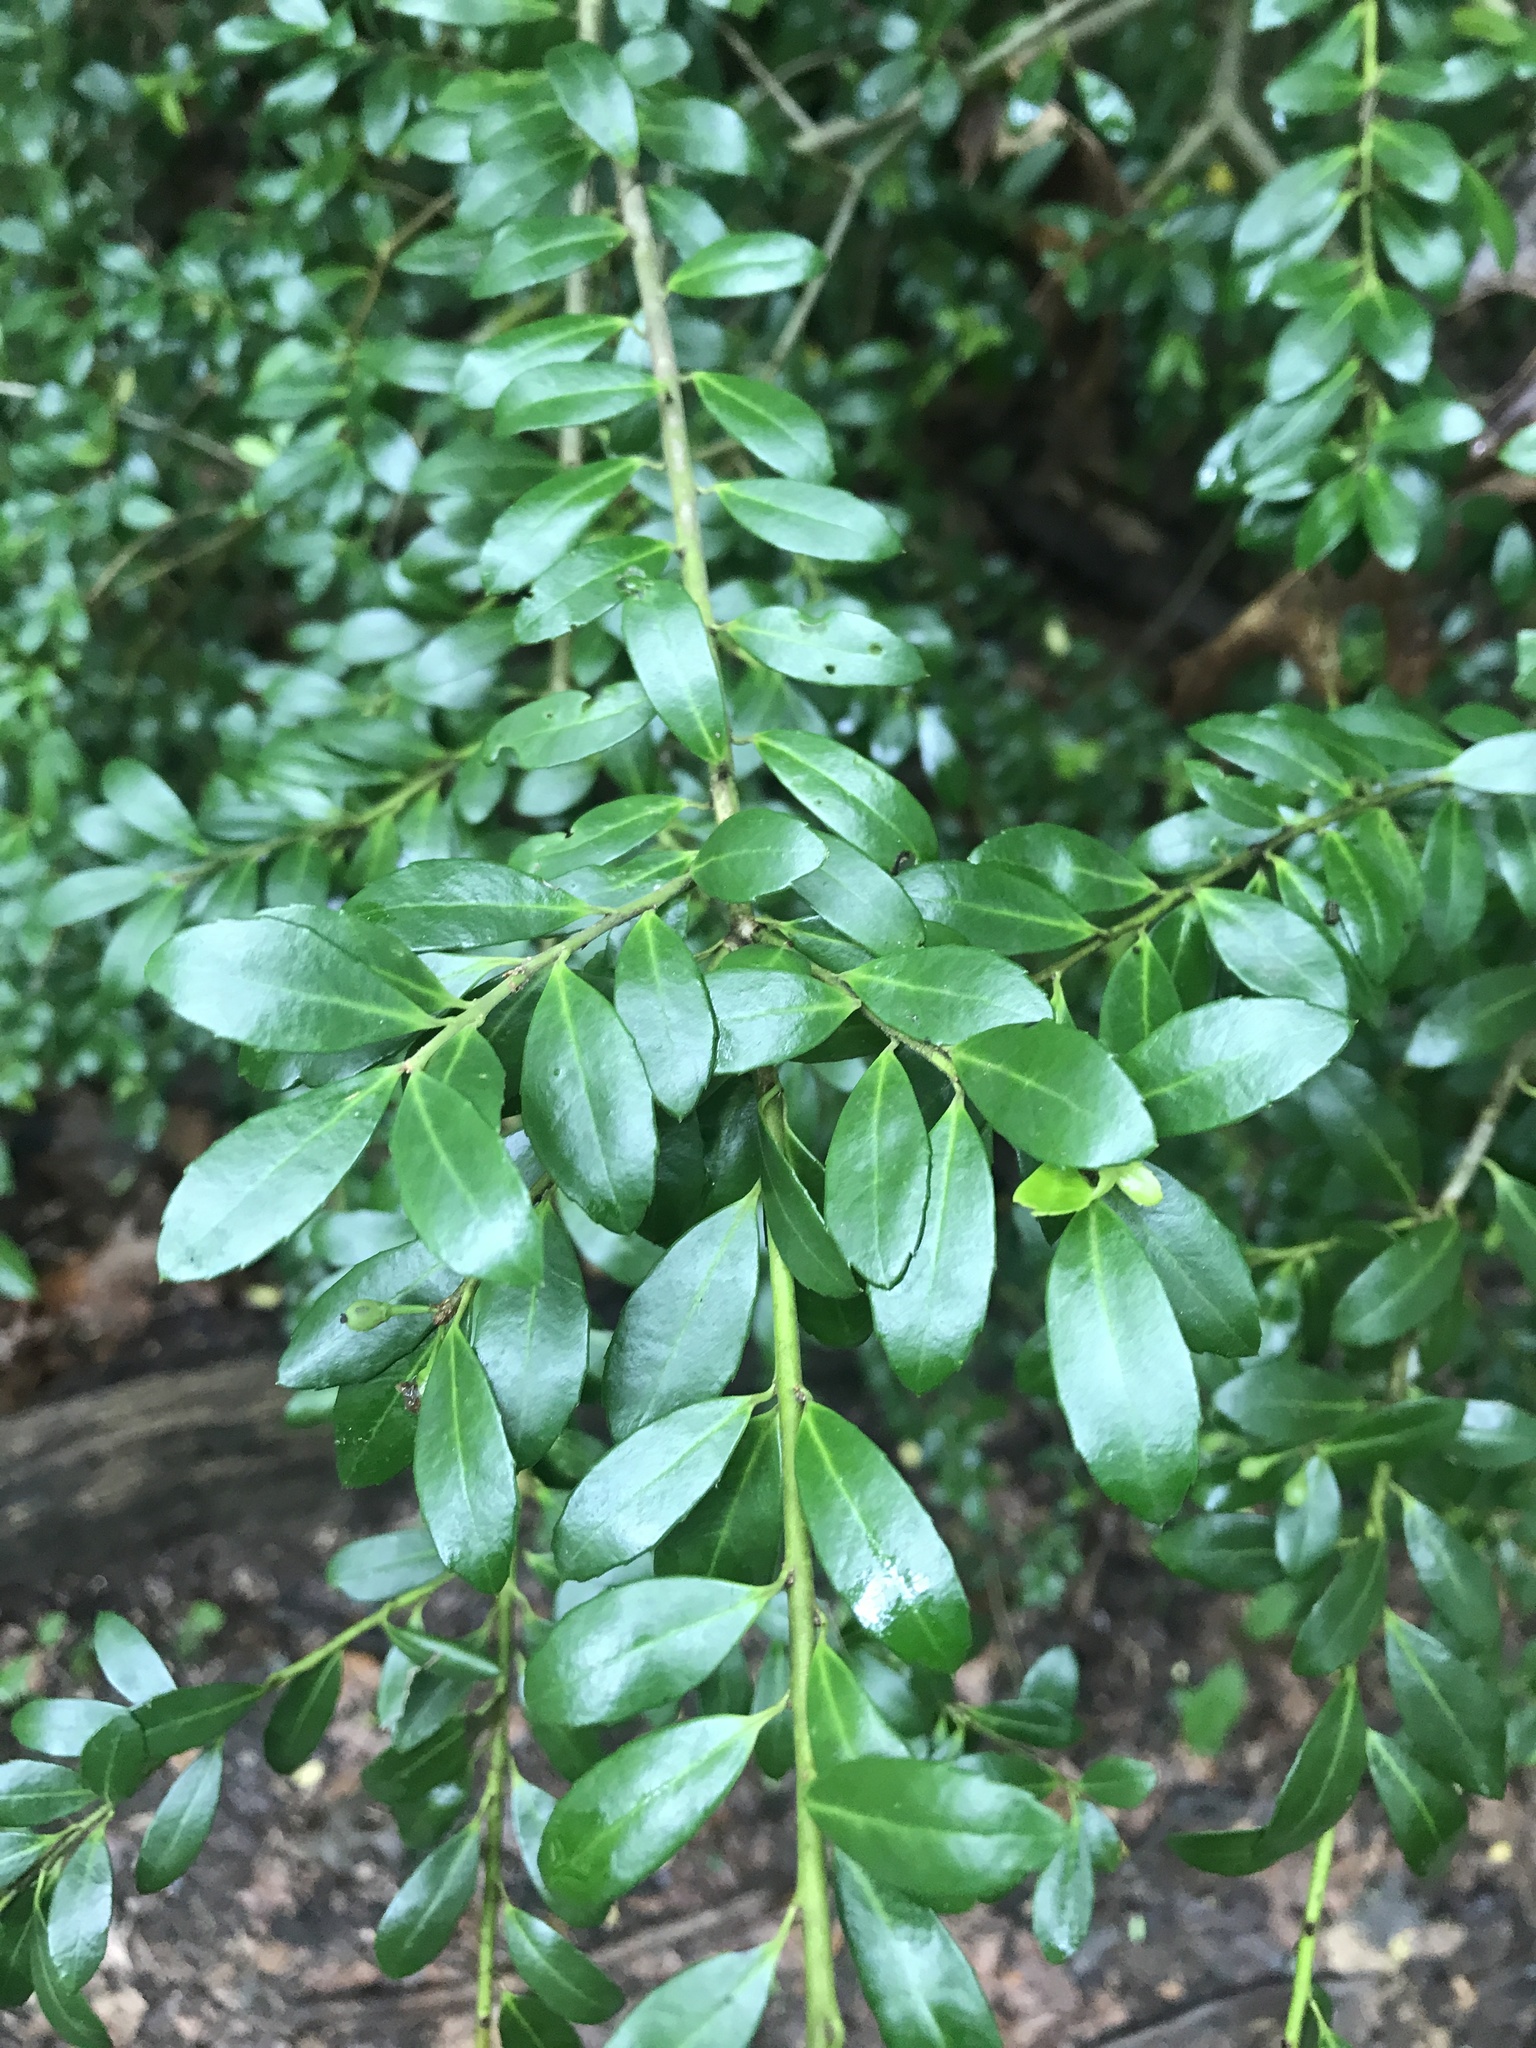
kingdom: Plantae
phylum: Tracheophyta
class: Magnoliopsida
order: Aquifoliales
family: Aquifoliaceae
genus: Ilex
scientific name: Ilex crenata
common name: Japanese holly
